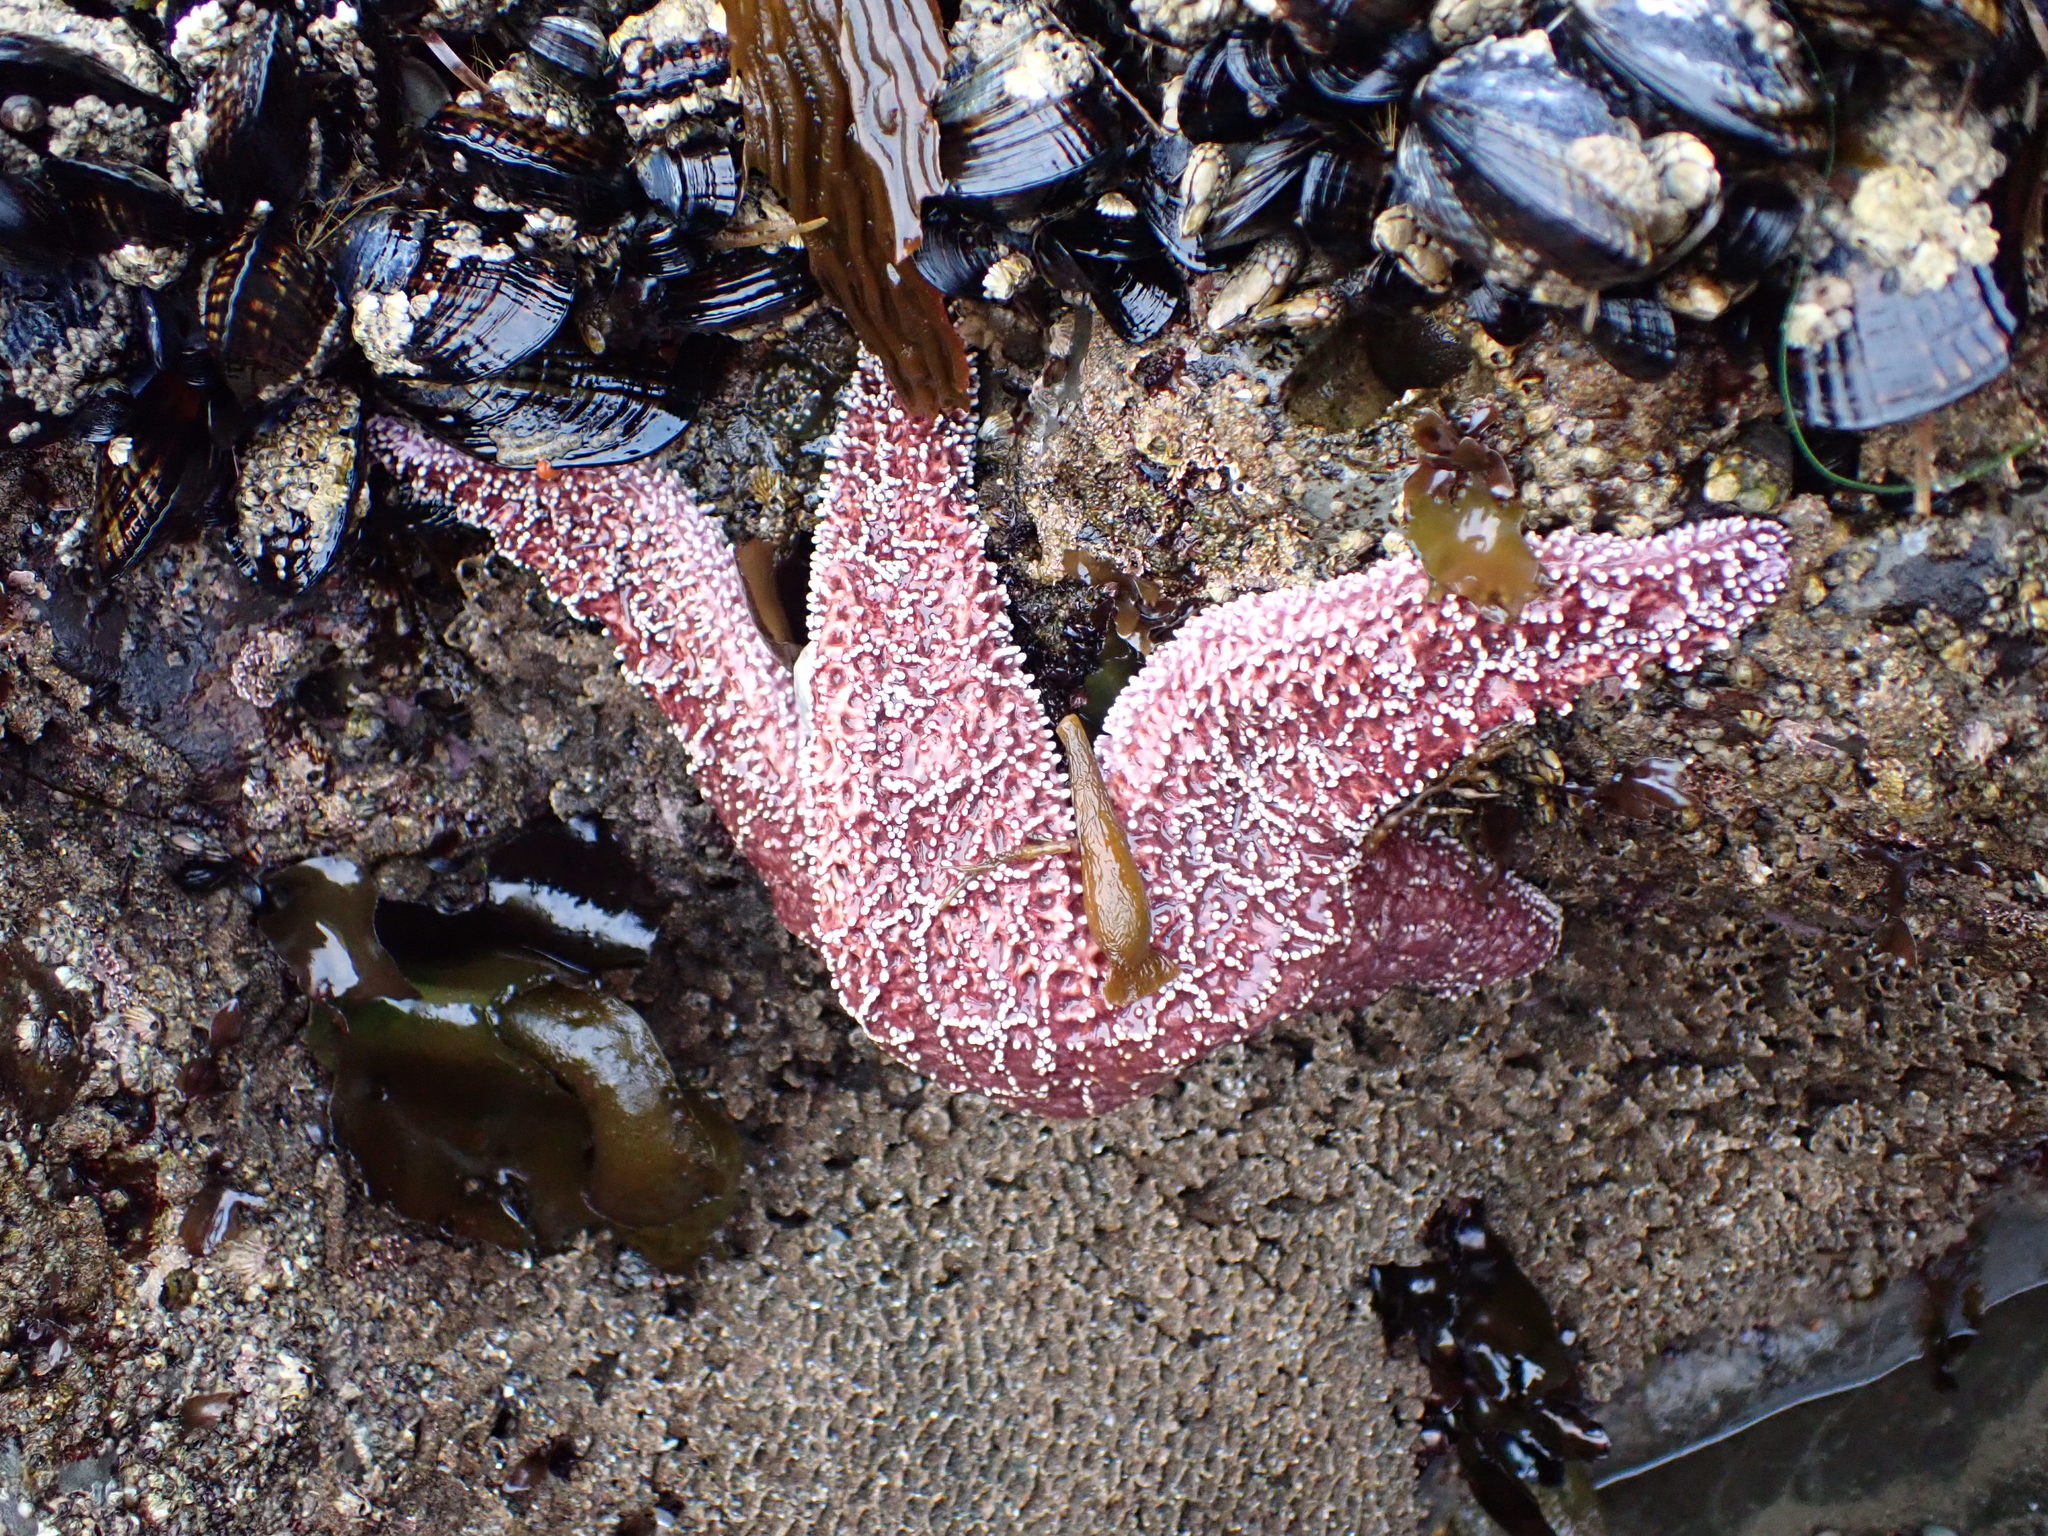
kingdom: Animalia
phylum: Echinodermata
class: Asteroidea
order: Forcipulatida
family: Asteriidae
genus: Pisaster
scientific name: Pisaster ochraceus
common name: Ochre stars
